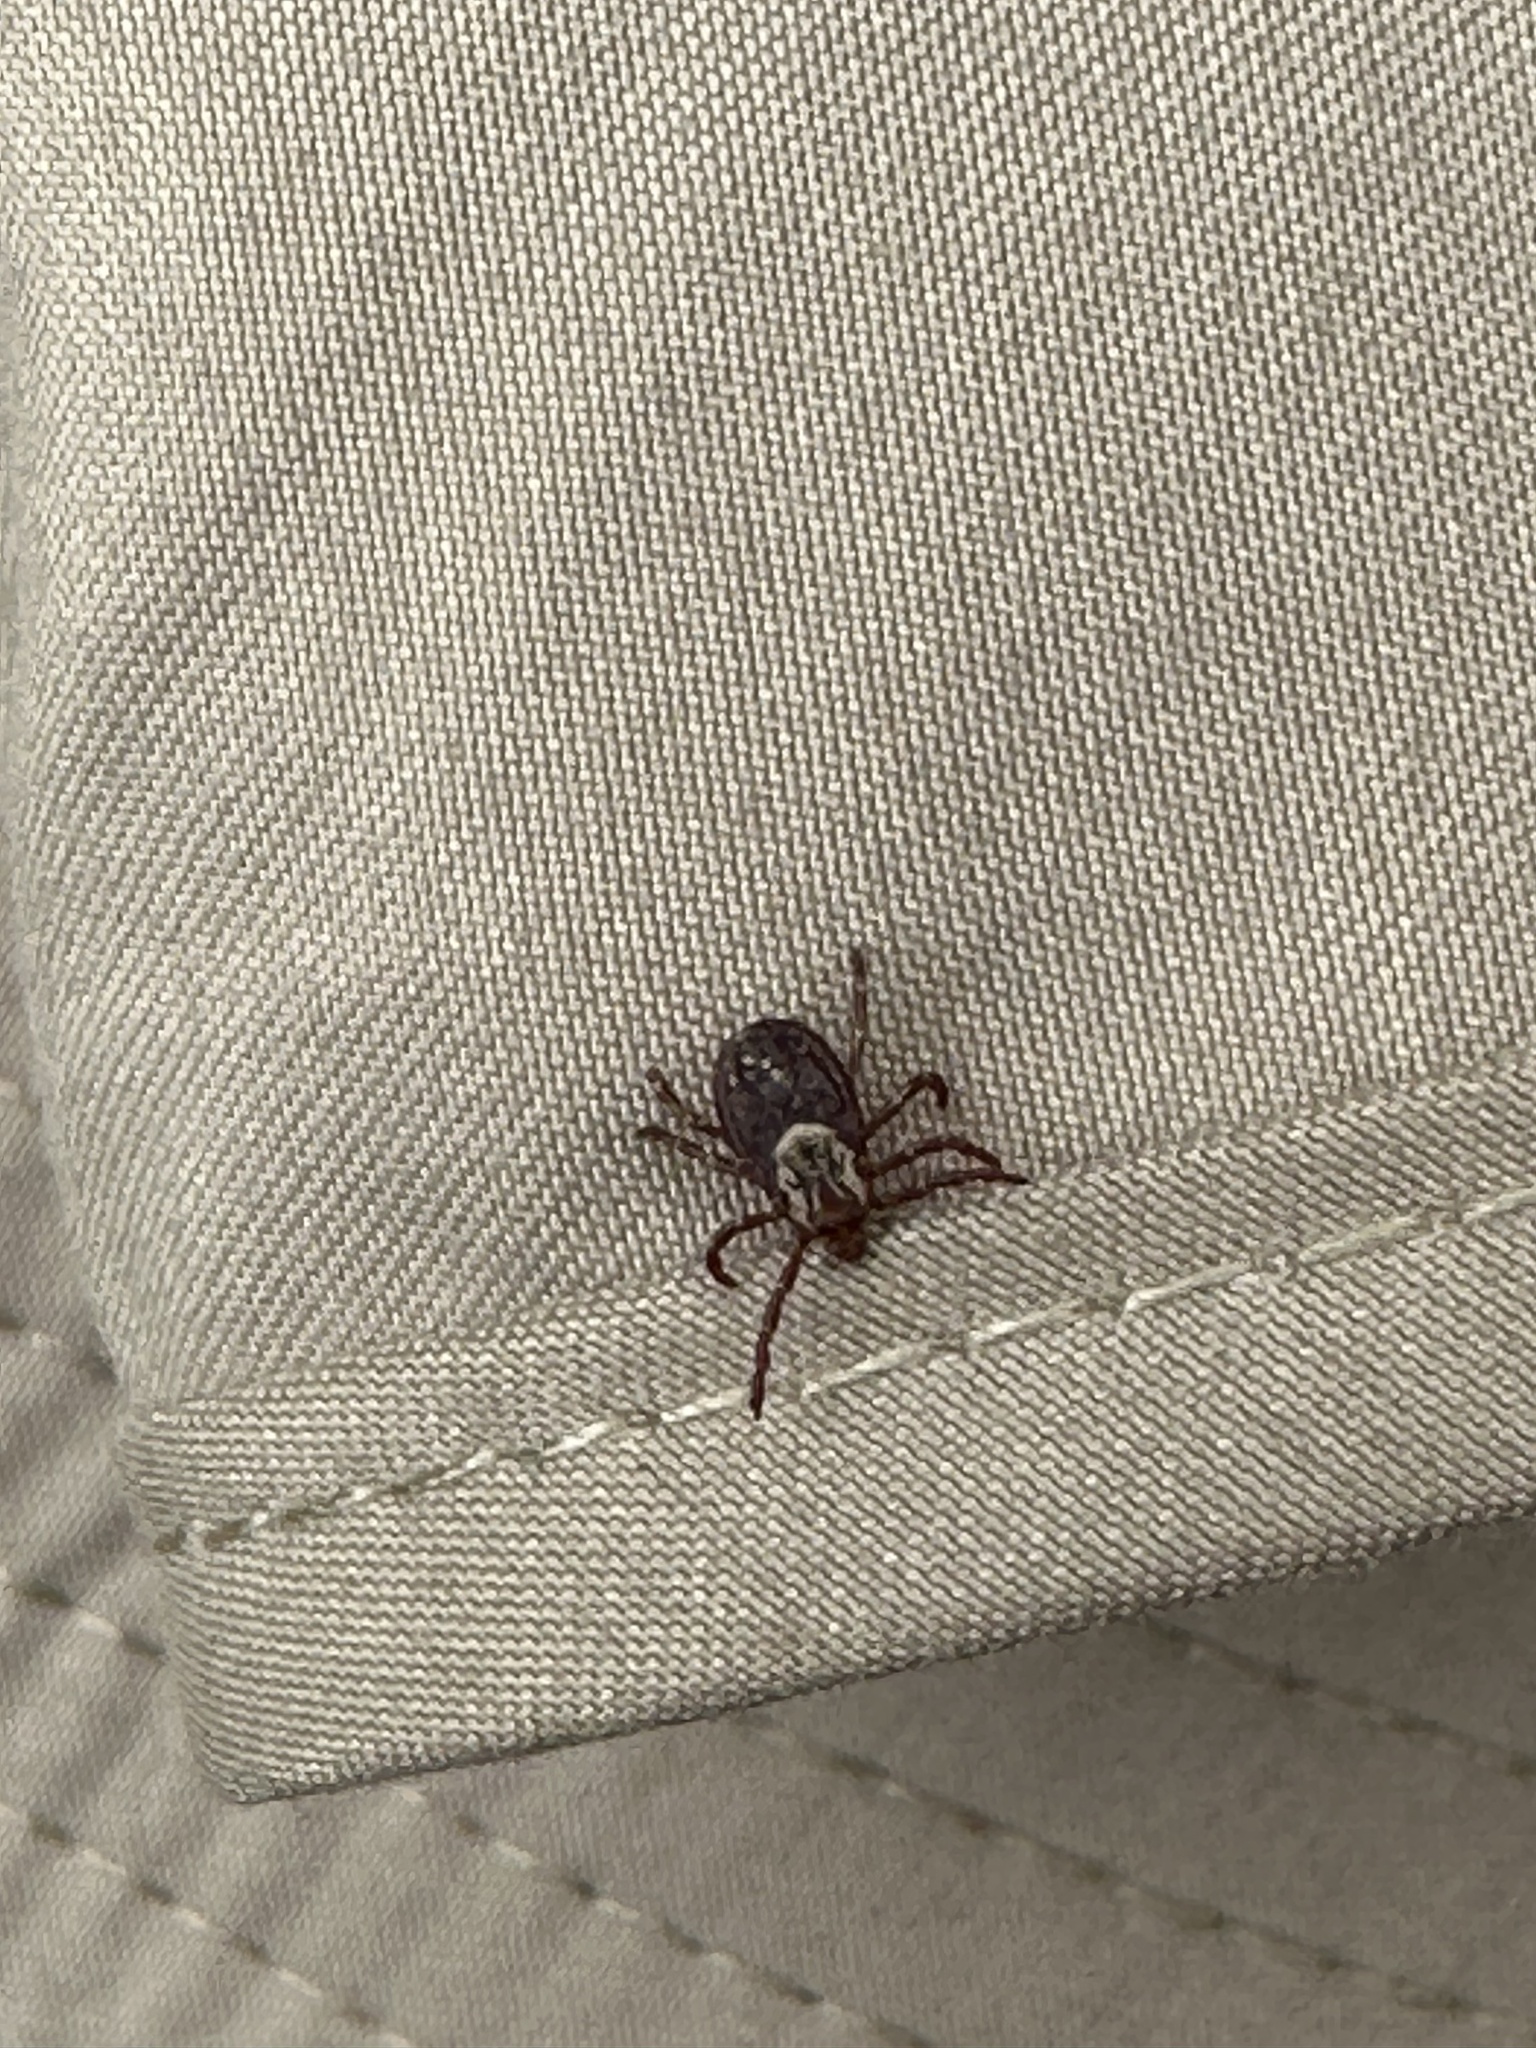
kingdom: Animalia
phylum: Arthropoda
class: Arachnida
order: Ixodida
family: Ixodidae
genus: Dermacentor
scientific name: Dermacentor variabilis
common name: American dog tick
